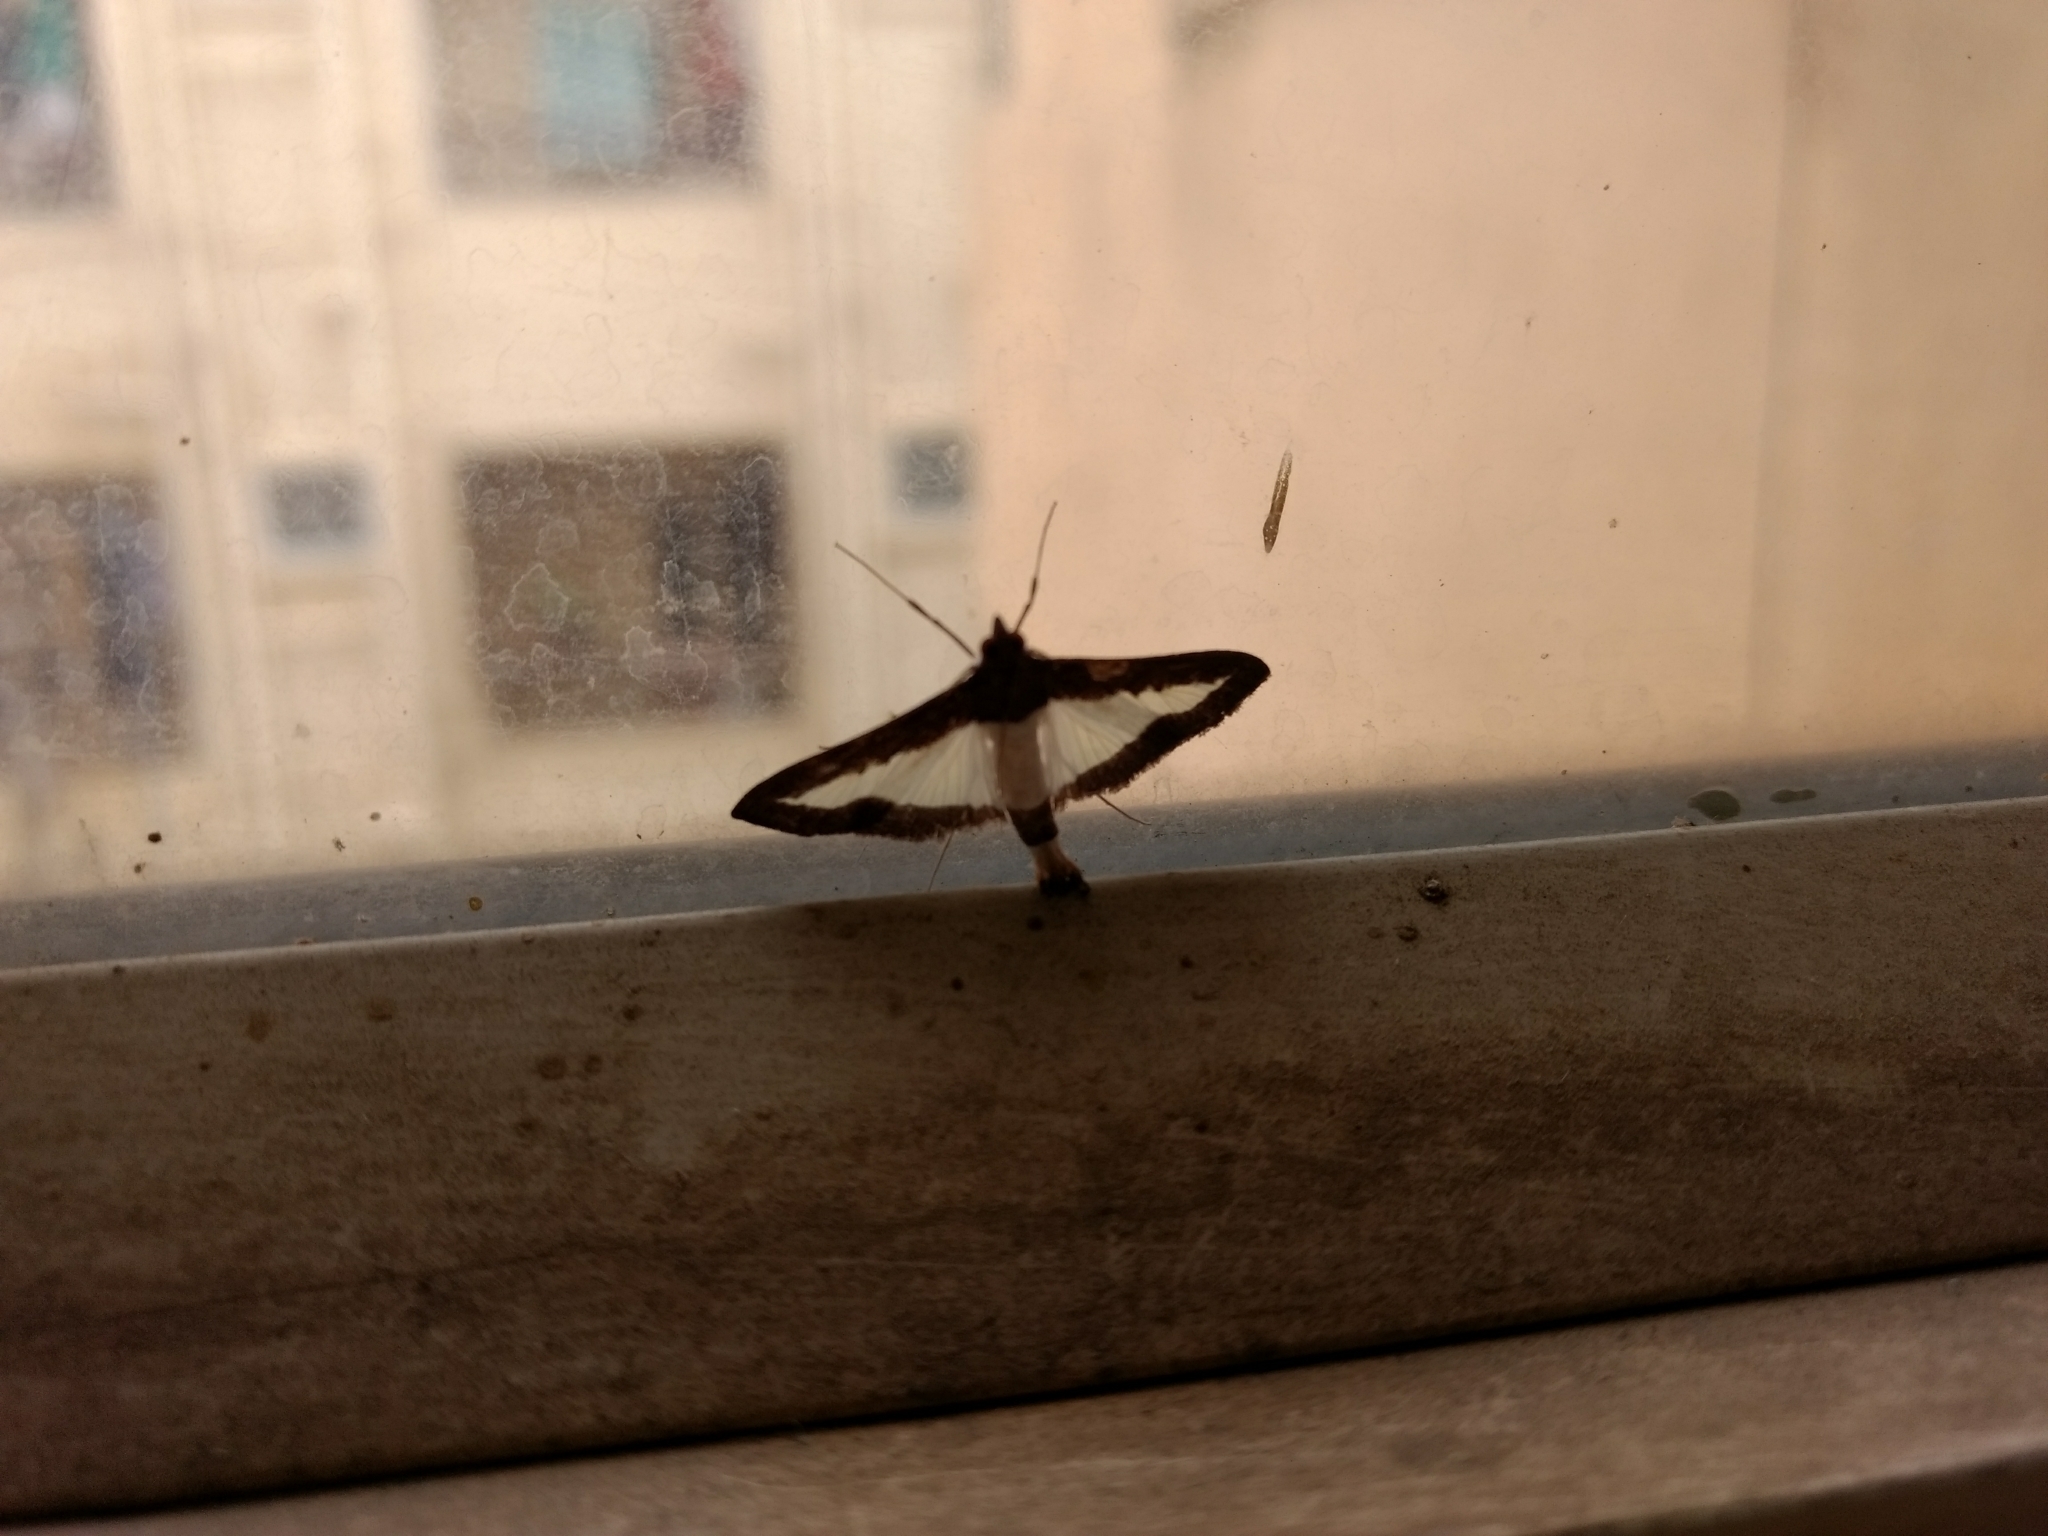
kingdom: Animalia
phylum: Arthropoda
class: Insecta
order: Lepidoptera
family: Crambidae
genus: Diaphania
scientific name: Diaphania indica
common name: Cucumber moth
